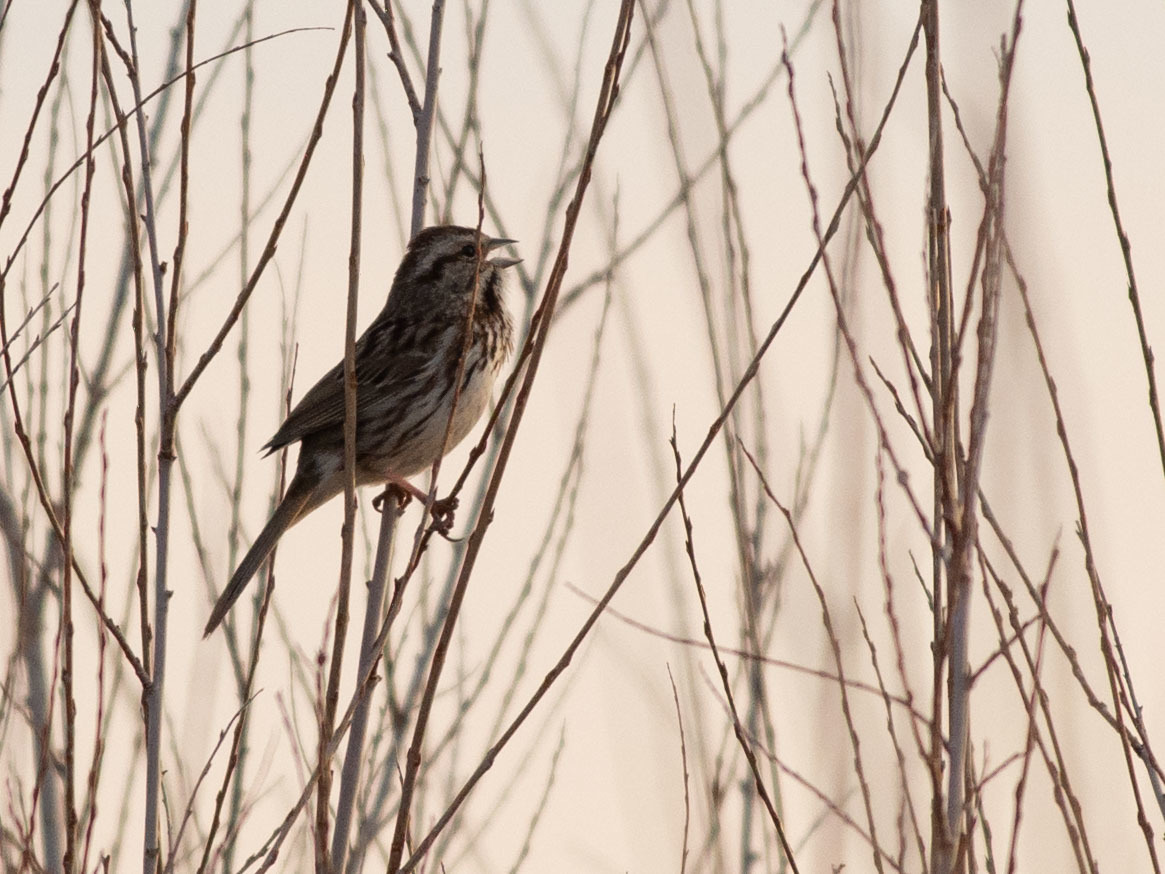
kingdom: Animalia
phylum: Chordata
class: Aves
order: Passeriformes
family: Passerellidae
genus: Melospiza
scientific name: Melospiza melodia
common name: Song sparrow
